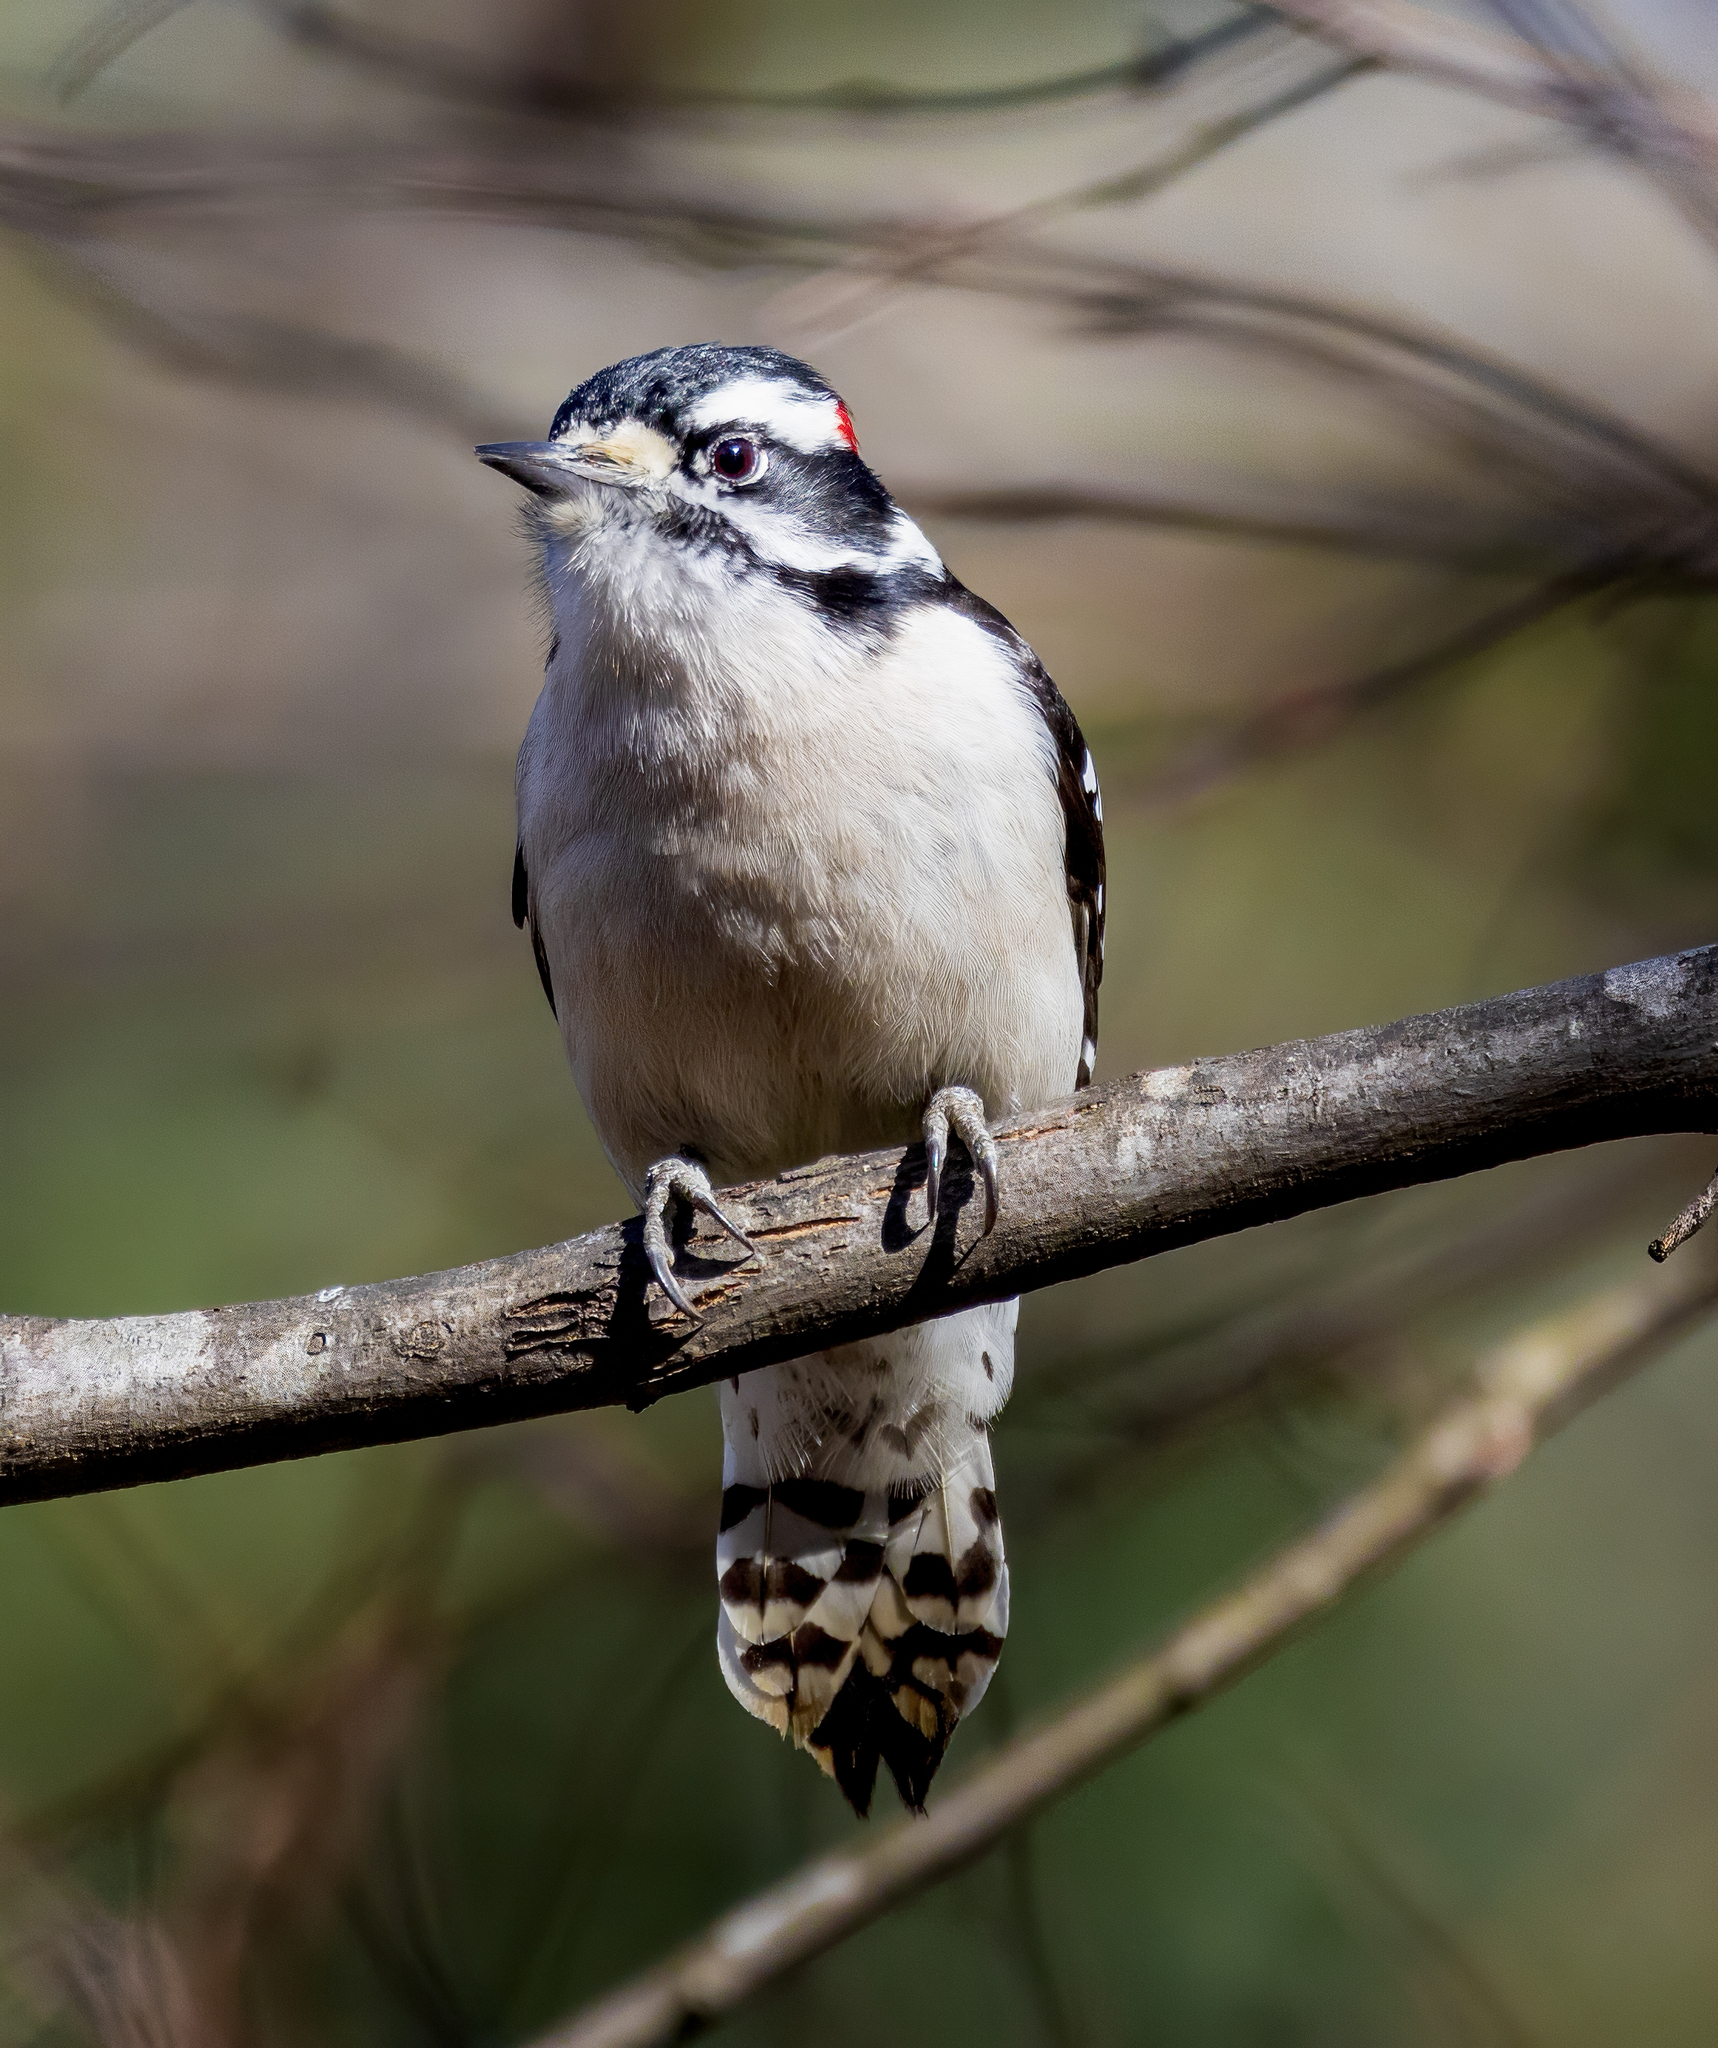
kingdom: Animalia
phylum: Chordata
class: Aves
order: Piciformes
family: Picidae
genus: Dryobates
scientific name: Dryobates pubescens
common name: Downy woodpecker
